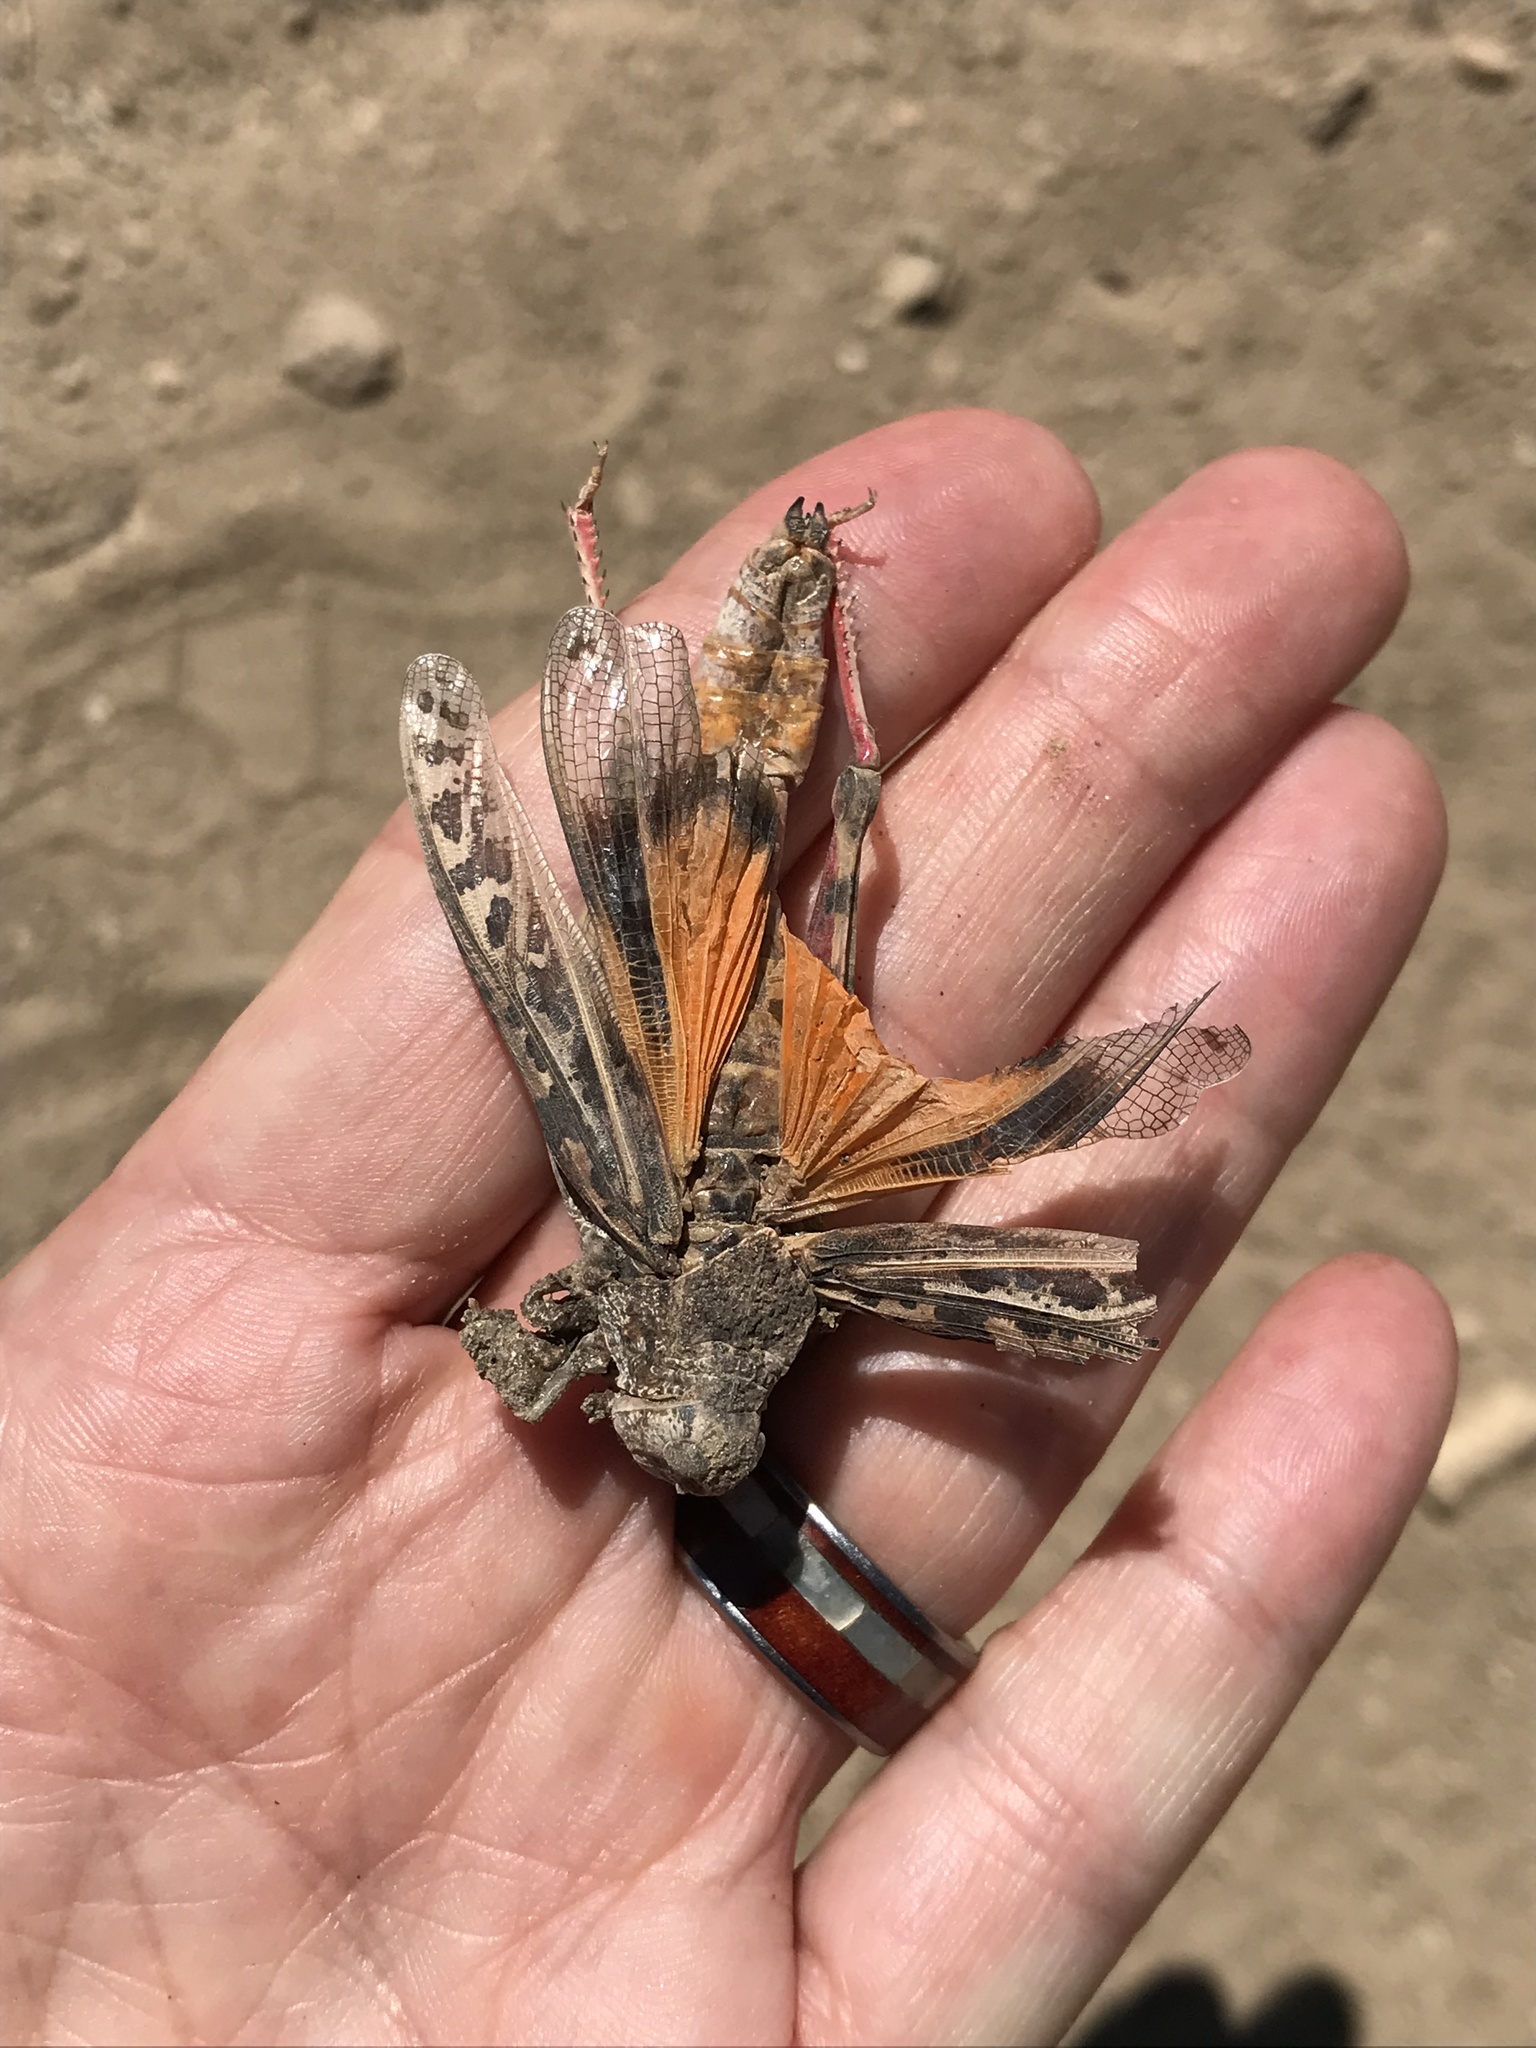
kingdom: Animalia
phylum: Arthropoda
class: Insecta
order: Orthoptera
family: Acrididae
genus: Xanthippus
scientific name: Xanthippus olancha
